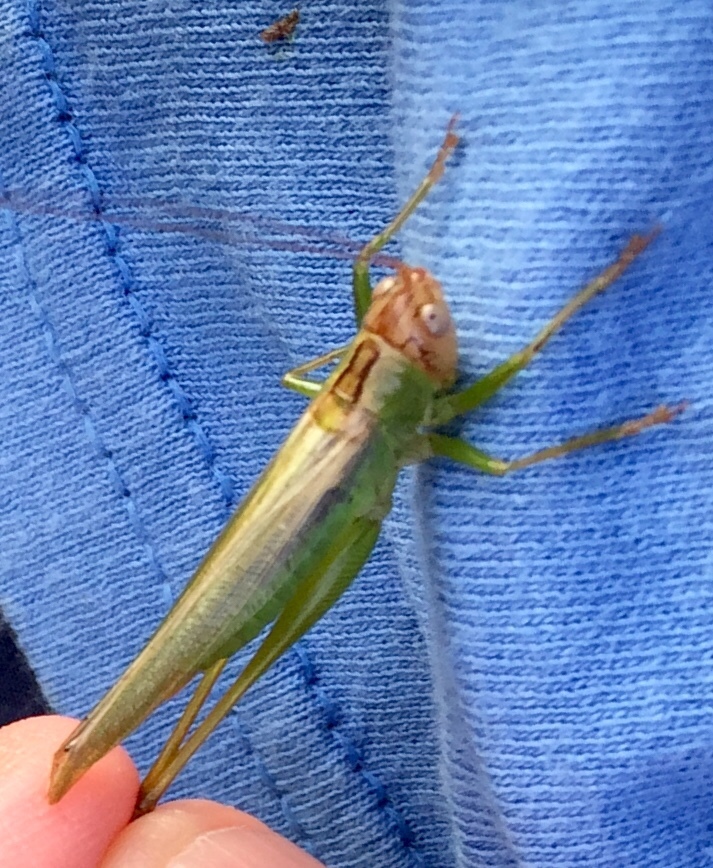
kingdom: Animalia
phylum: Arthropoda
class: Insecta
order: Orthoptera
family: Tettigoniidae
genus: Orchelimum
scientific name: Orchelimum agilis
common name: Agile meadow grasshopper
